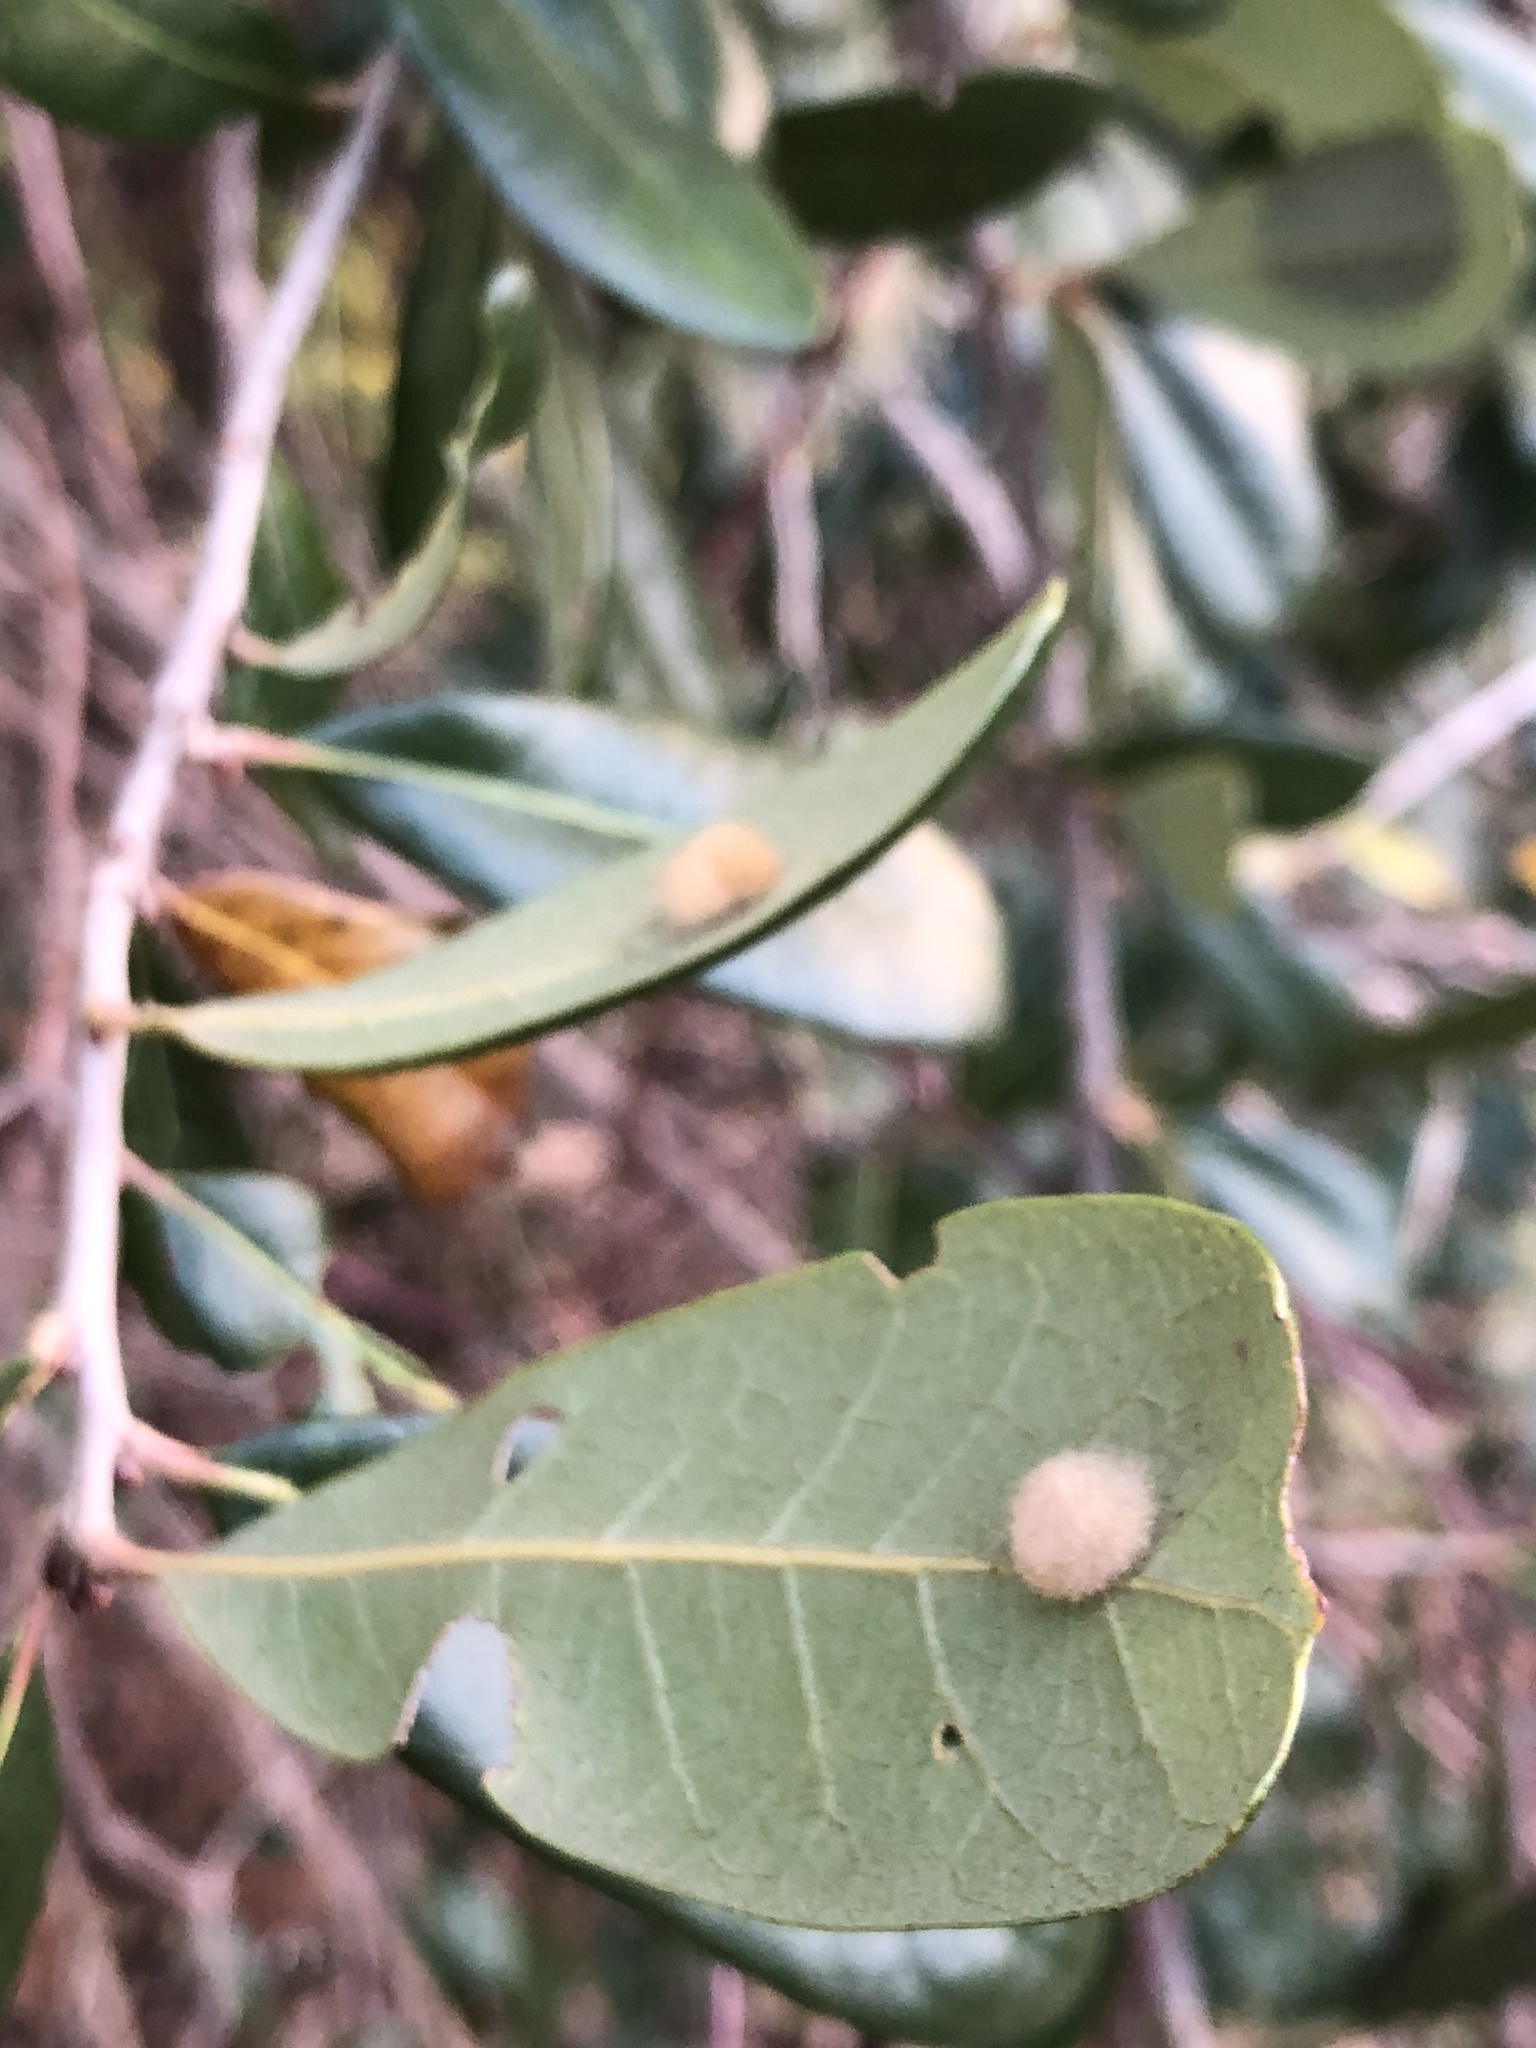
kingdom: Animalia
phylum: Arthropoda
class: Insecta
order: Hymenoptera
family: Cynipidae
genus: Andricus
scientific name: Andricus Druon quercuslanigerum
